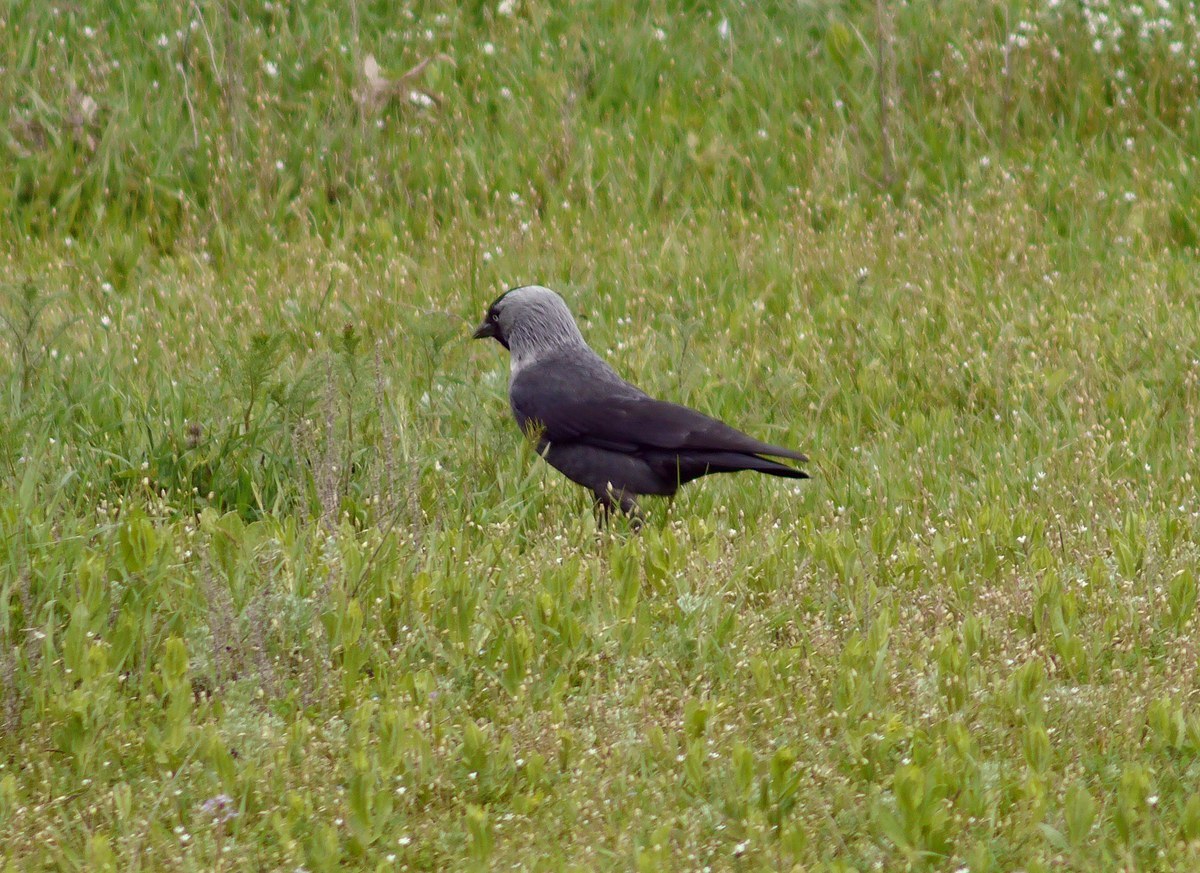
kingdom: Animalia
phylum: Chordata
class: Aves
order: Passeriformes
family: Corvidae
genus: Coloeus
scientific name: Coloeus monedula
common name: Western jackdaw
